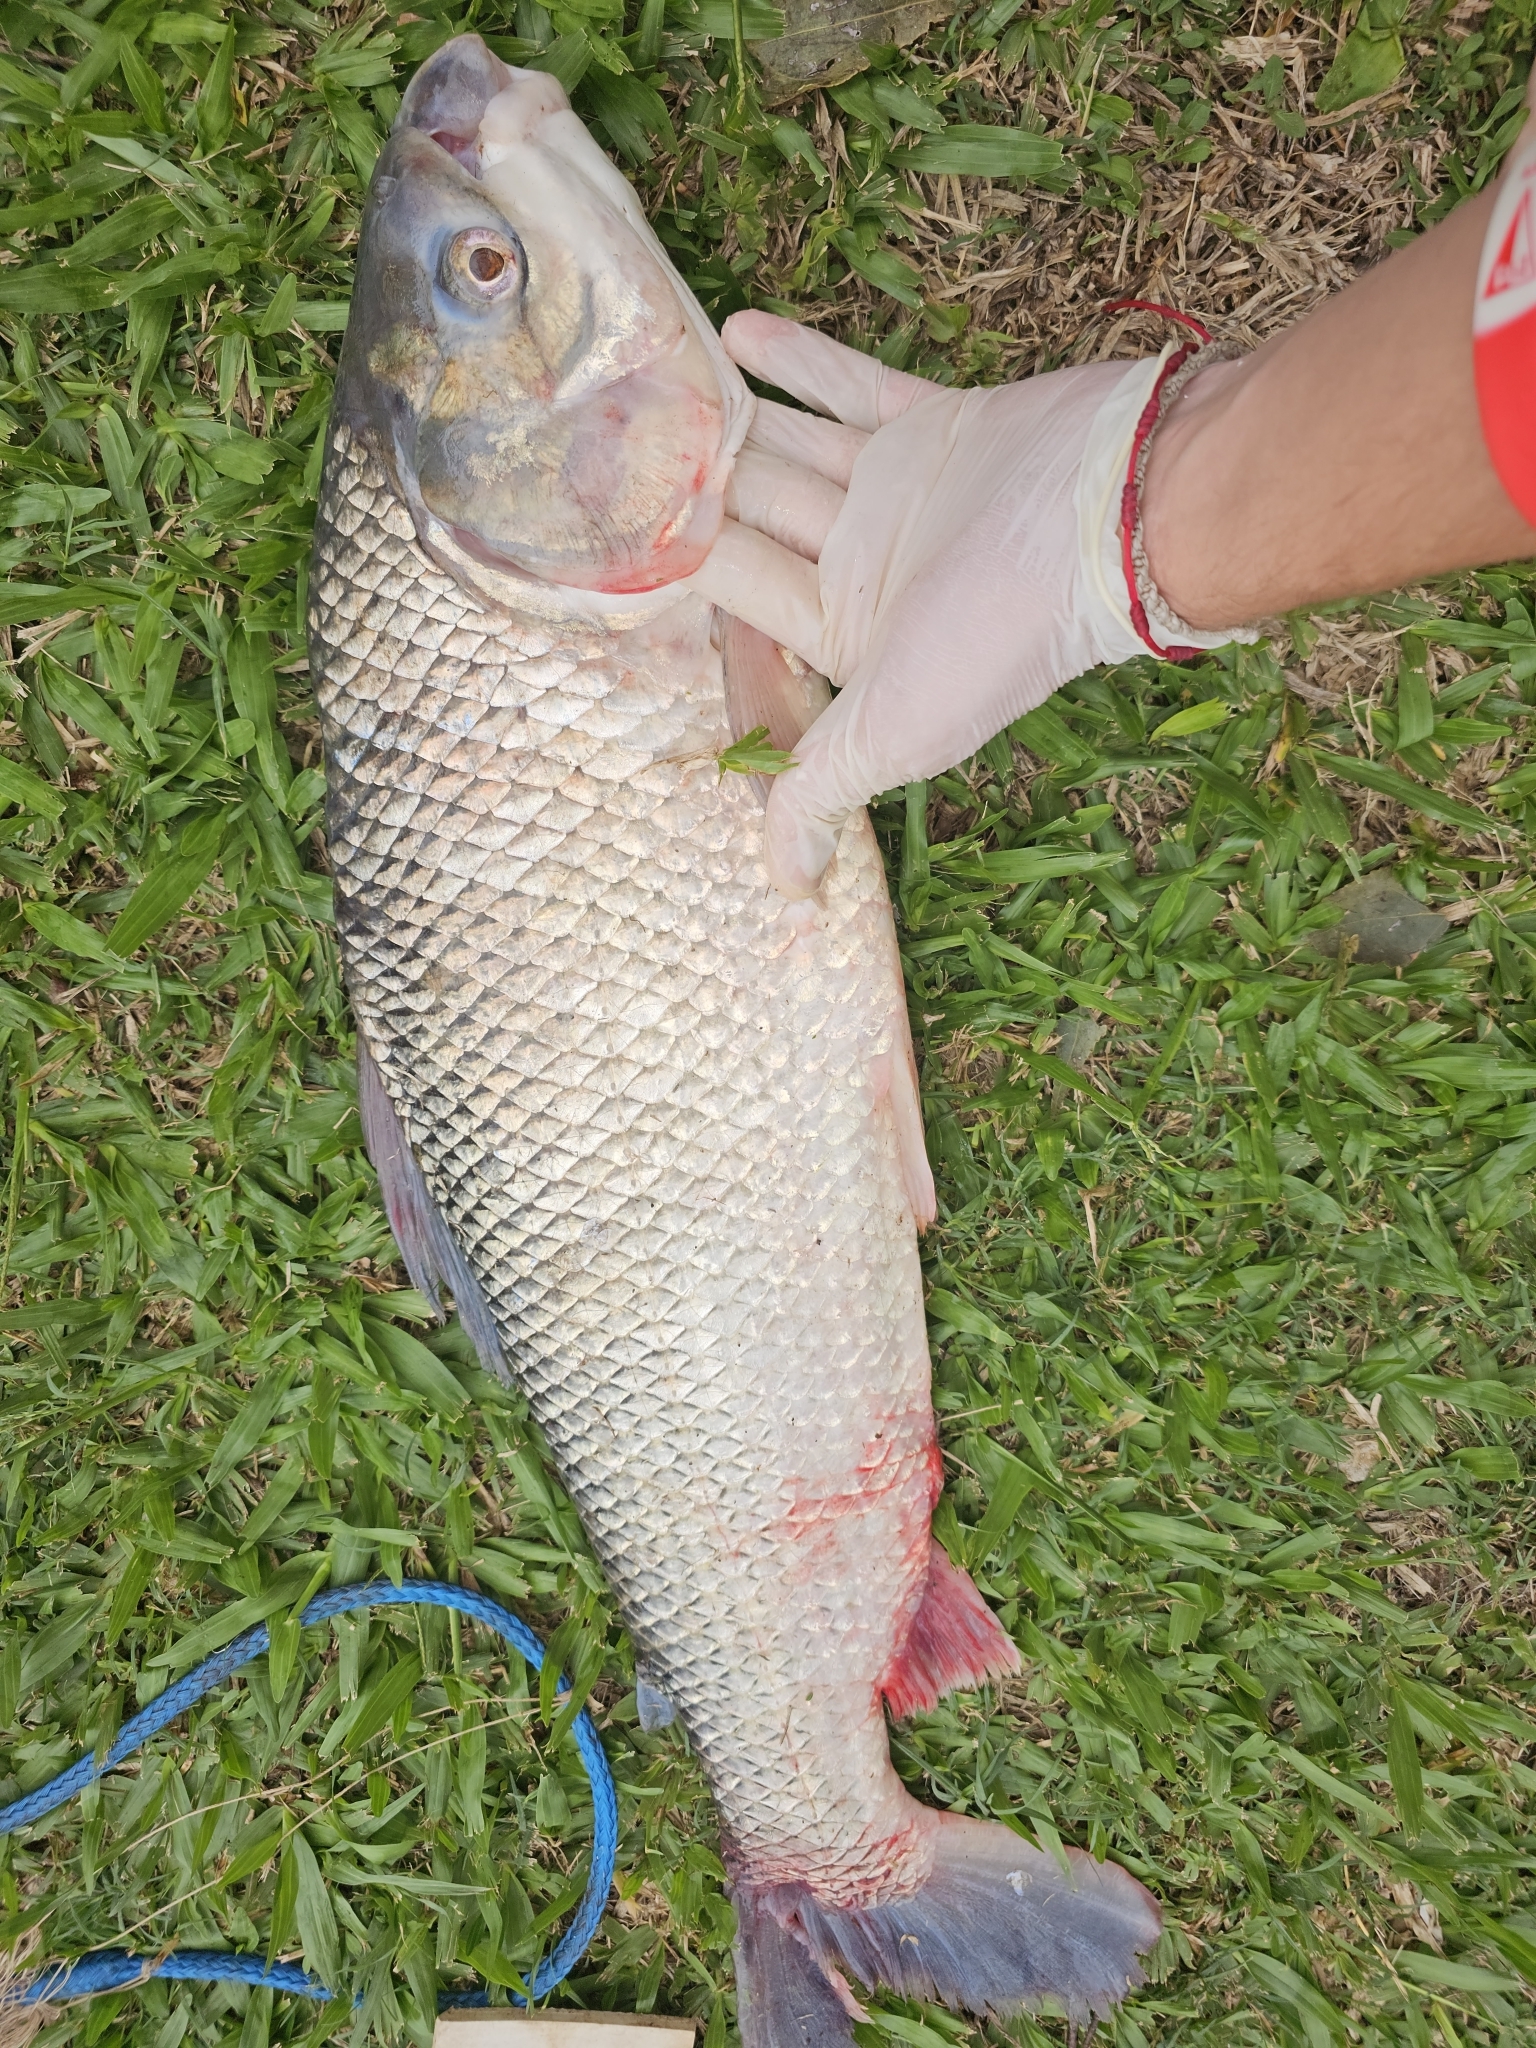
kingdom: Animalia
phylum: Chordata
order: Characiformes
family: Prochilodontidae
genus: Prochilodus
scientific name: Prochilodus lineatus
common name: Curimbata
